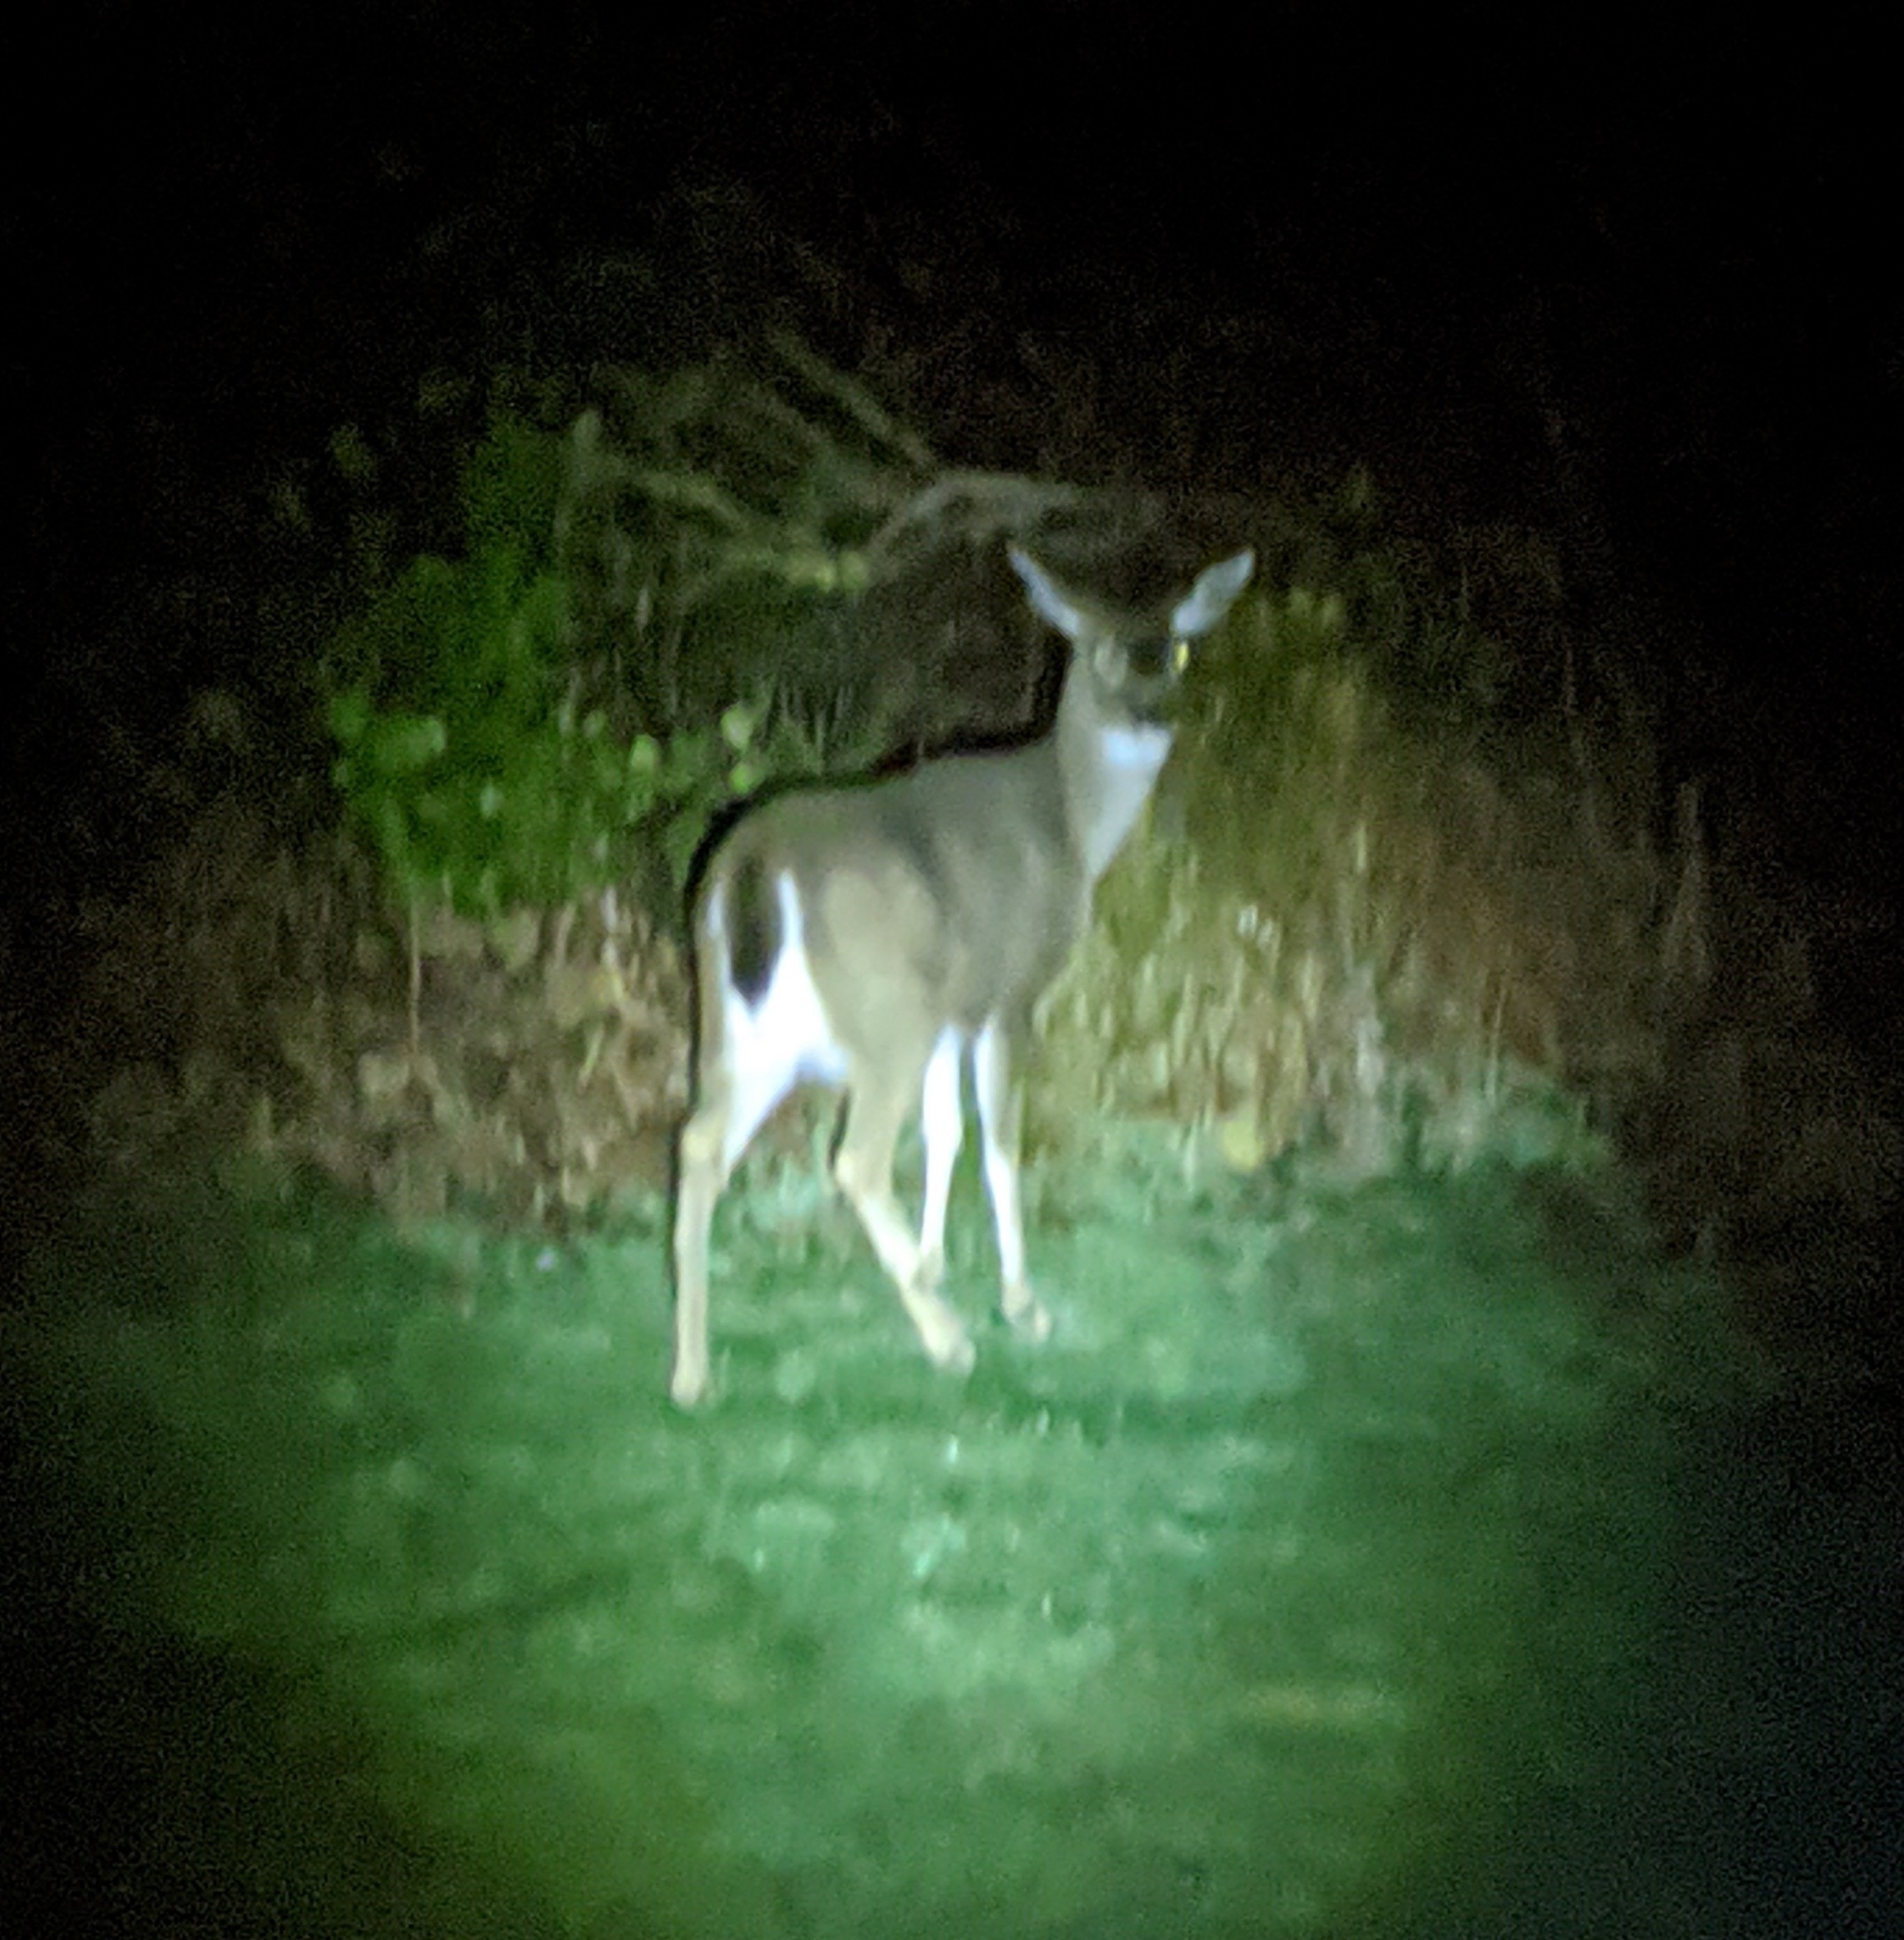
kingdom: Animalia
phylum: Chordata
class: Mammalia
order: Artiodactyla
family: Cervidae
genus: Odocoileus
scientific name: Odocoileus hemionus
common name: Mule deer
